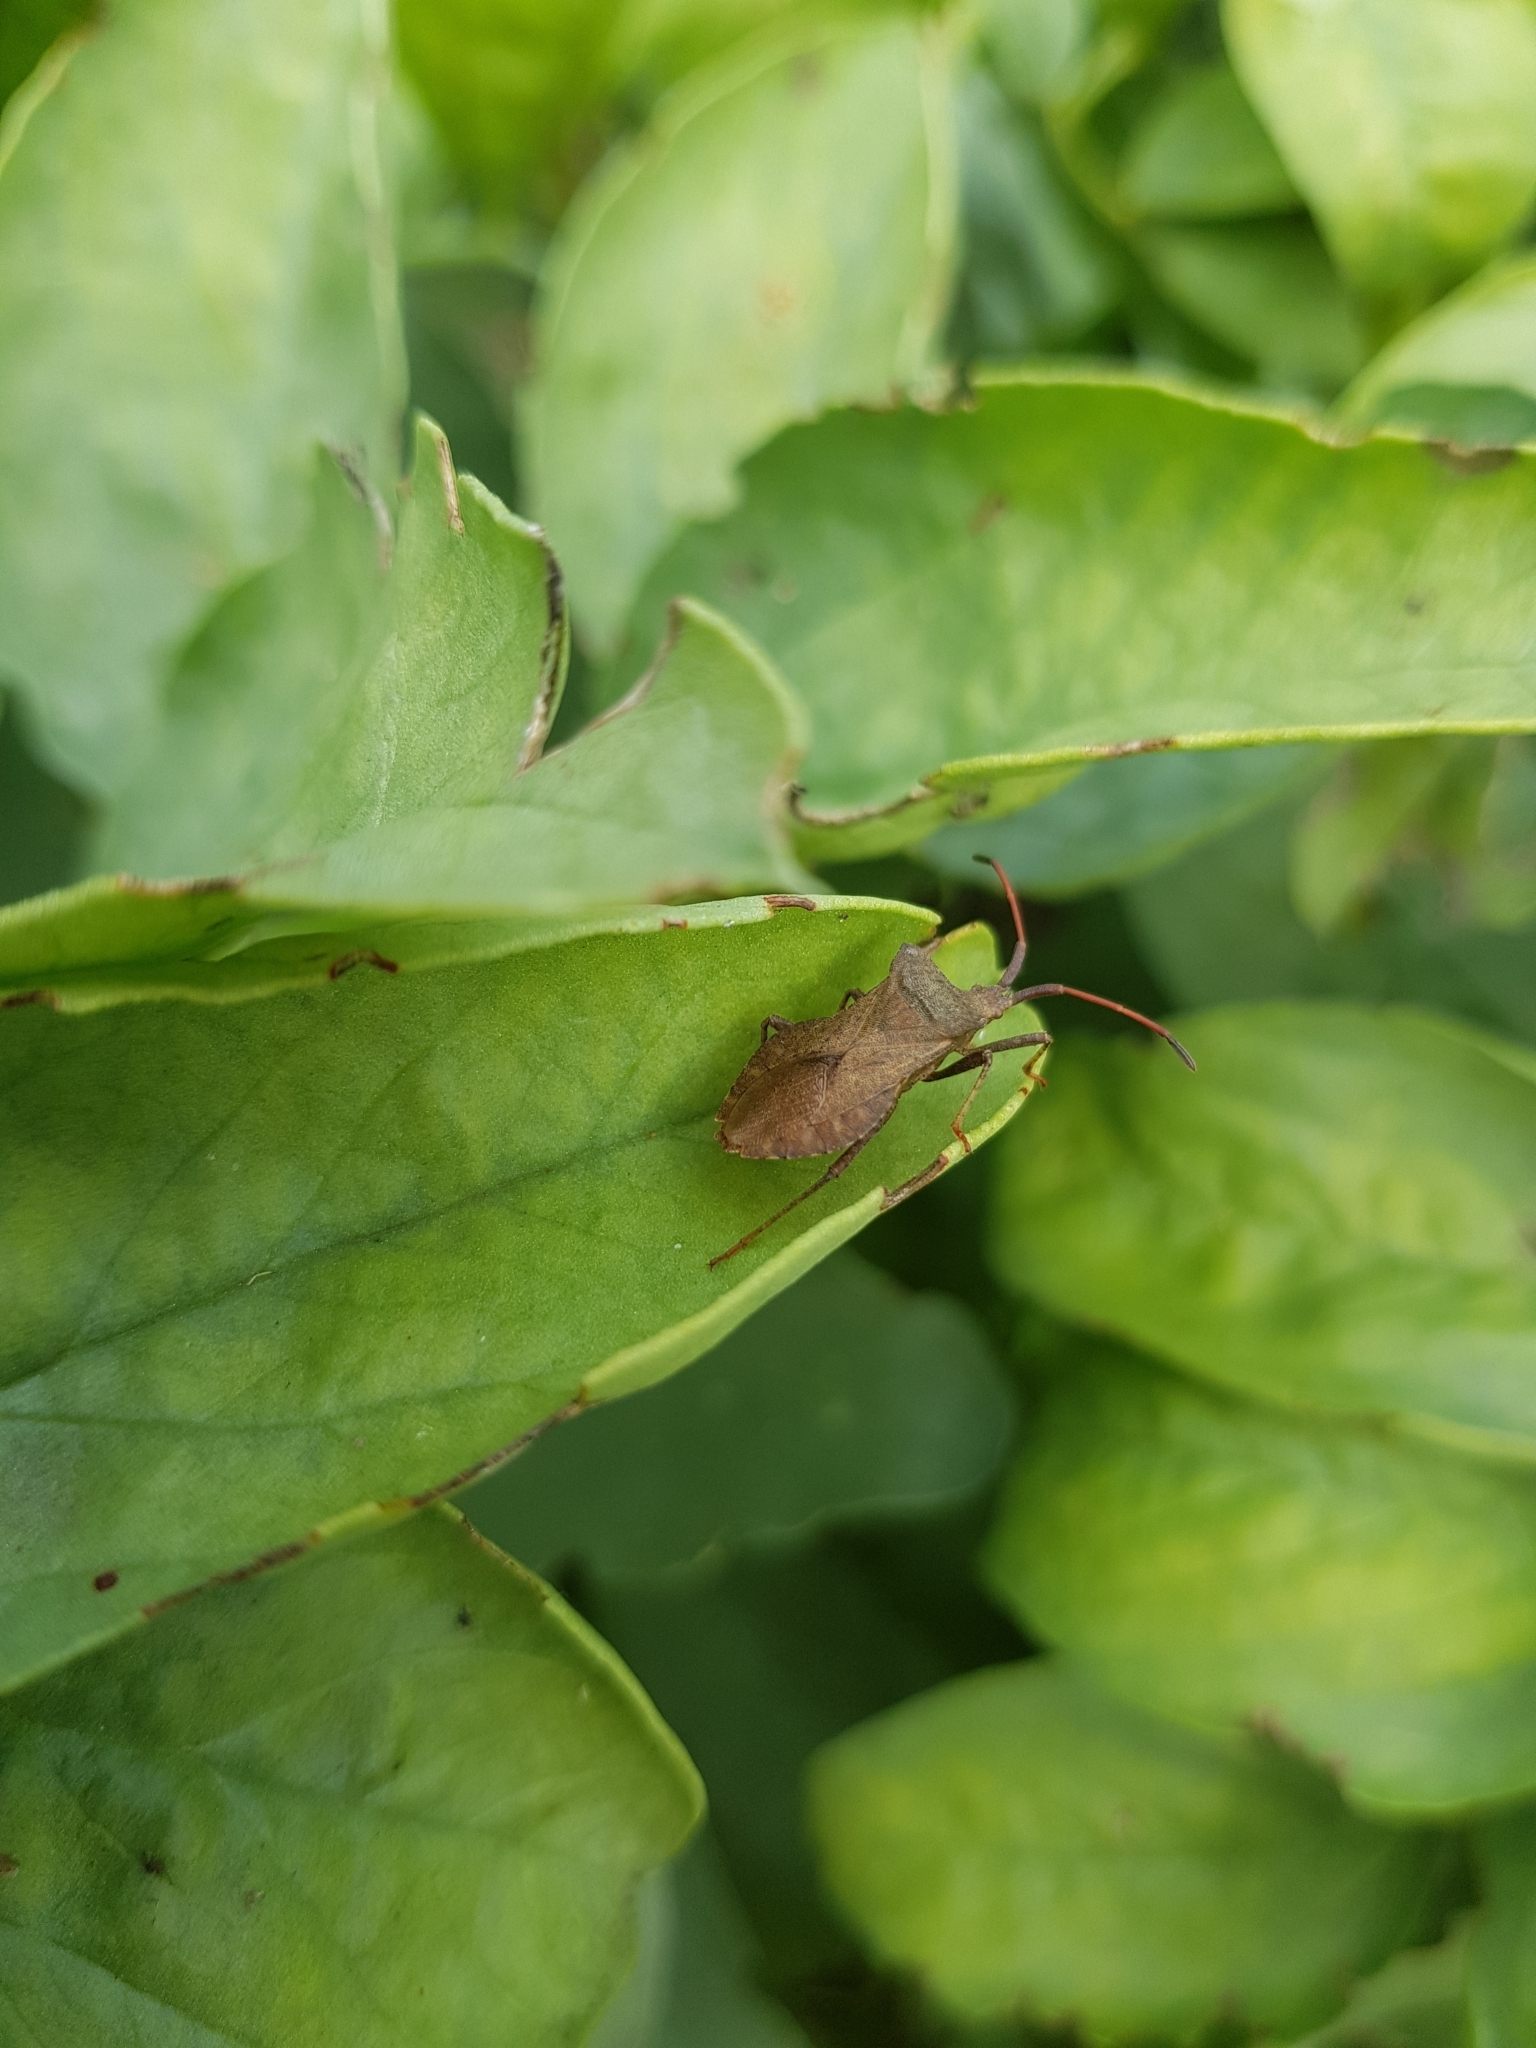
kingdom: Animalia
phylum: Arthropoda
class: Insecta
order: Hemiptera
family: Coreidae
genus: Coreus
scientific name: Coreus marginatus
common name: Dock bug
